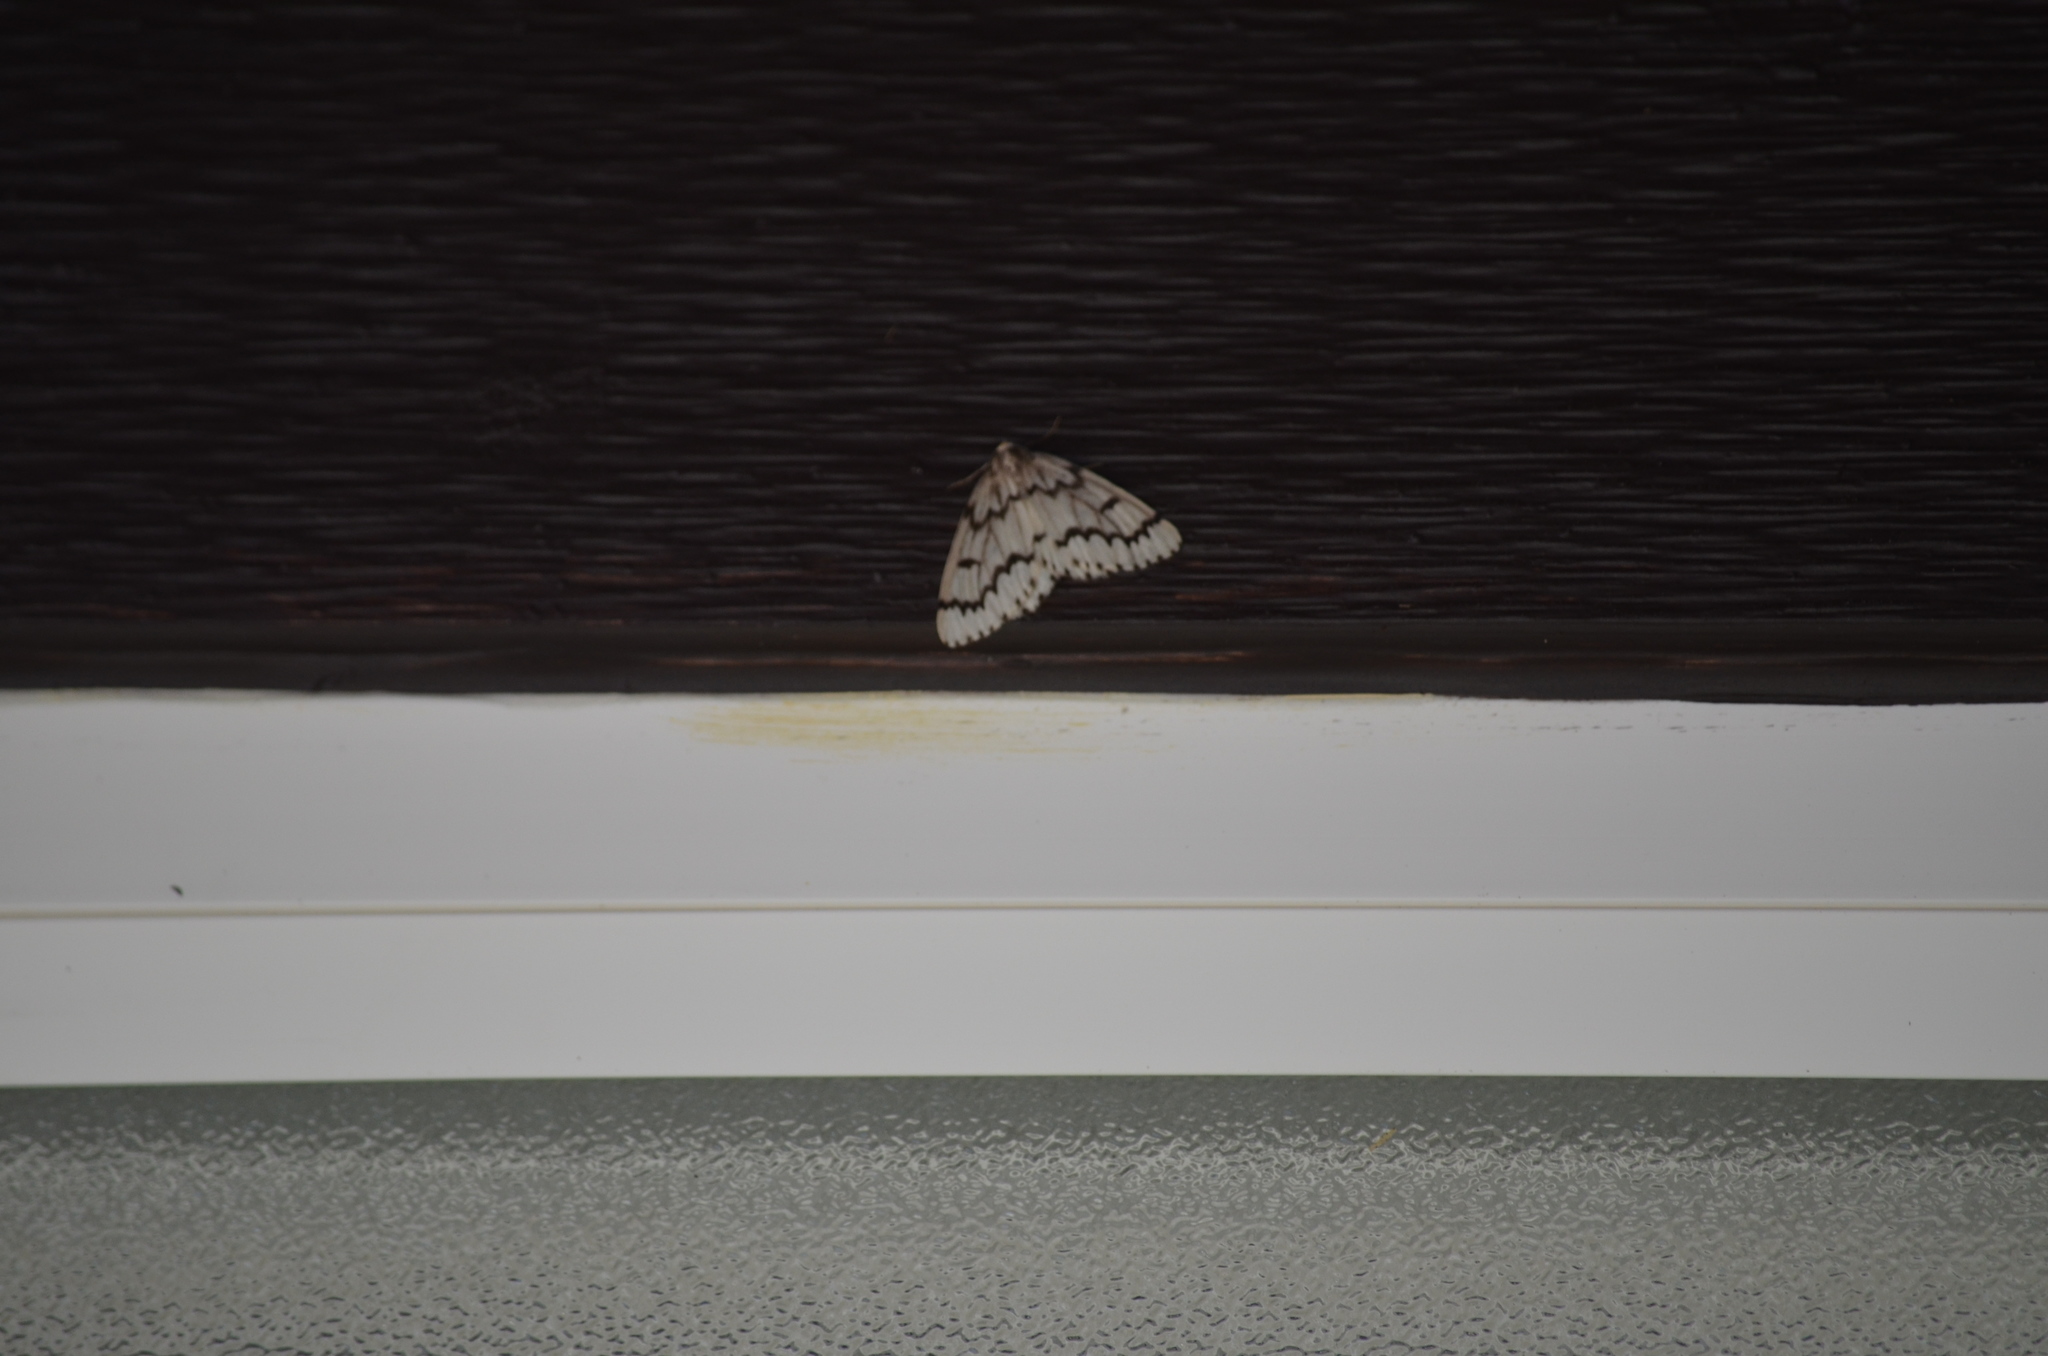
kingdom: Animalia
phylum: Arthropoda
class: Insecta
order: Lepidoptera
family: Geometridae
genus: Nepytia
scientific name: Nepytia phantasmaria
